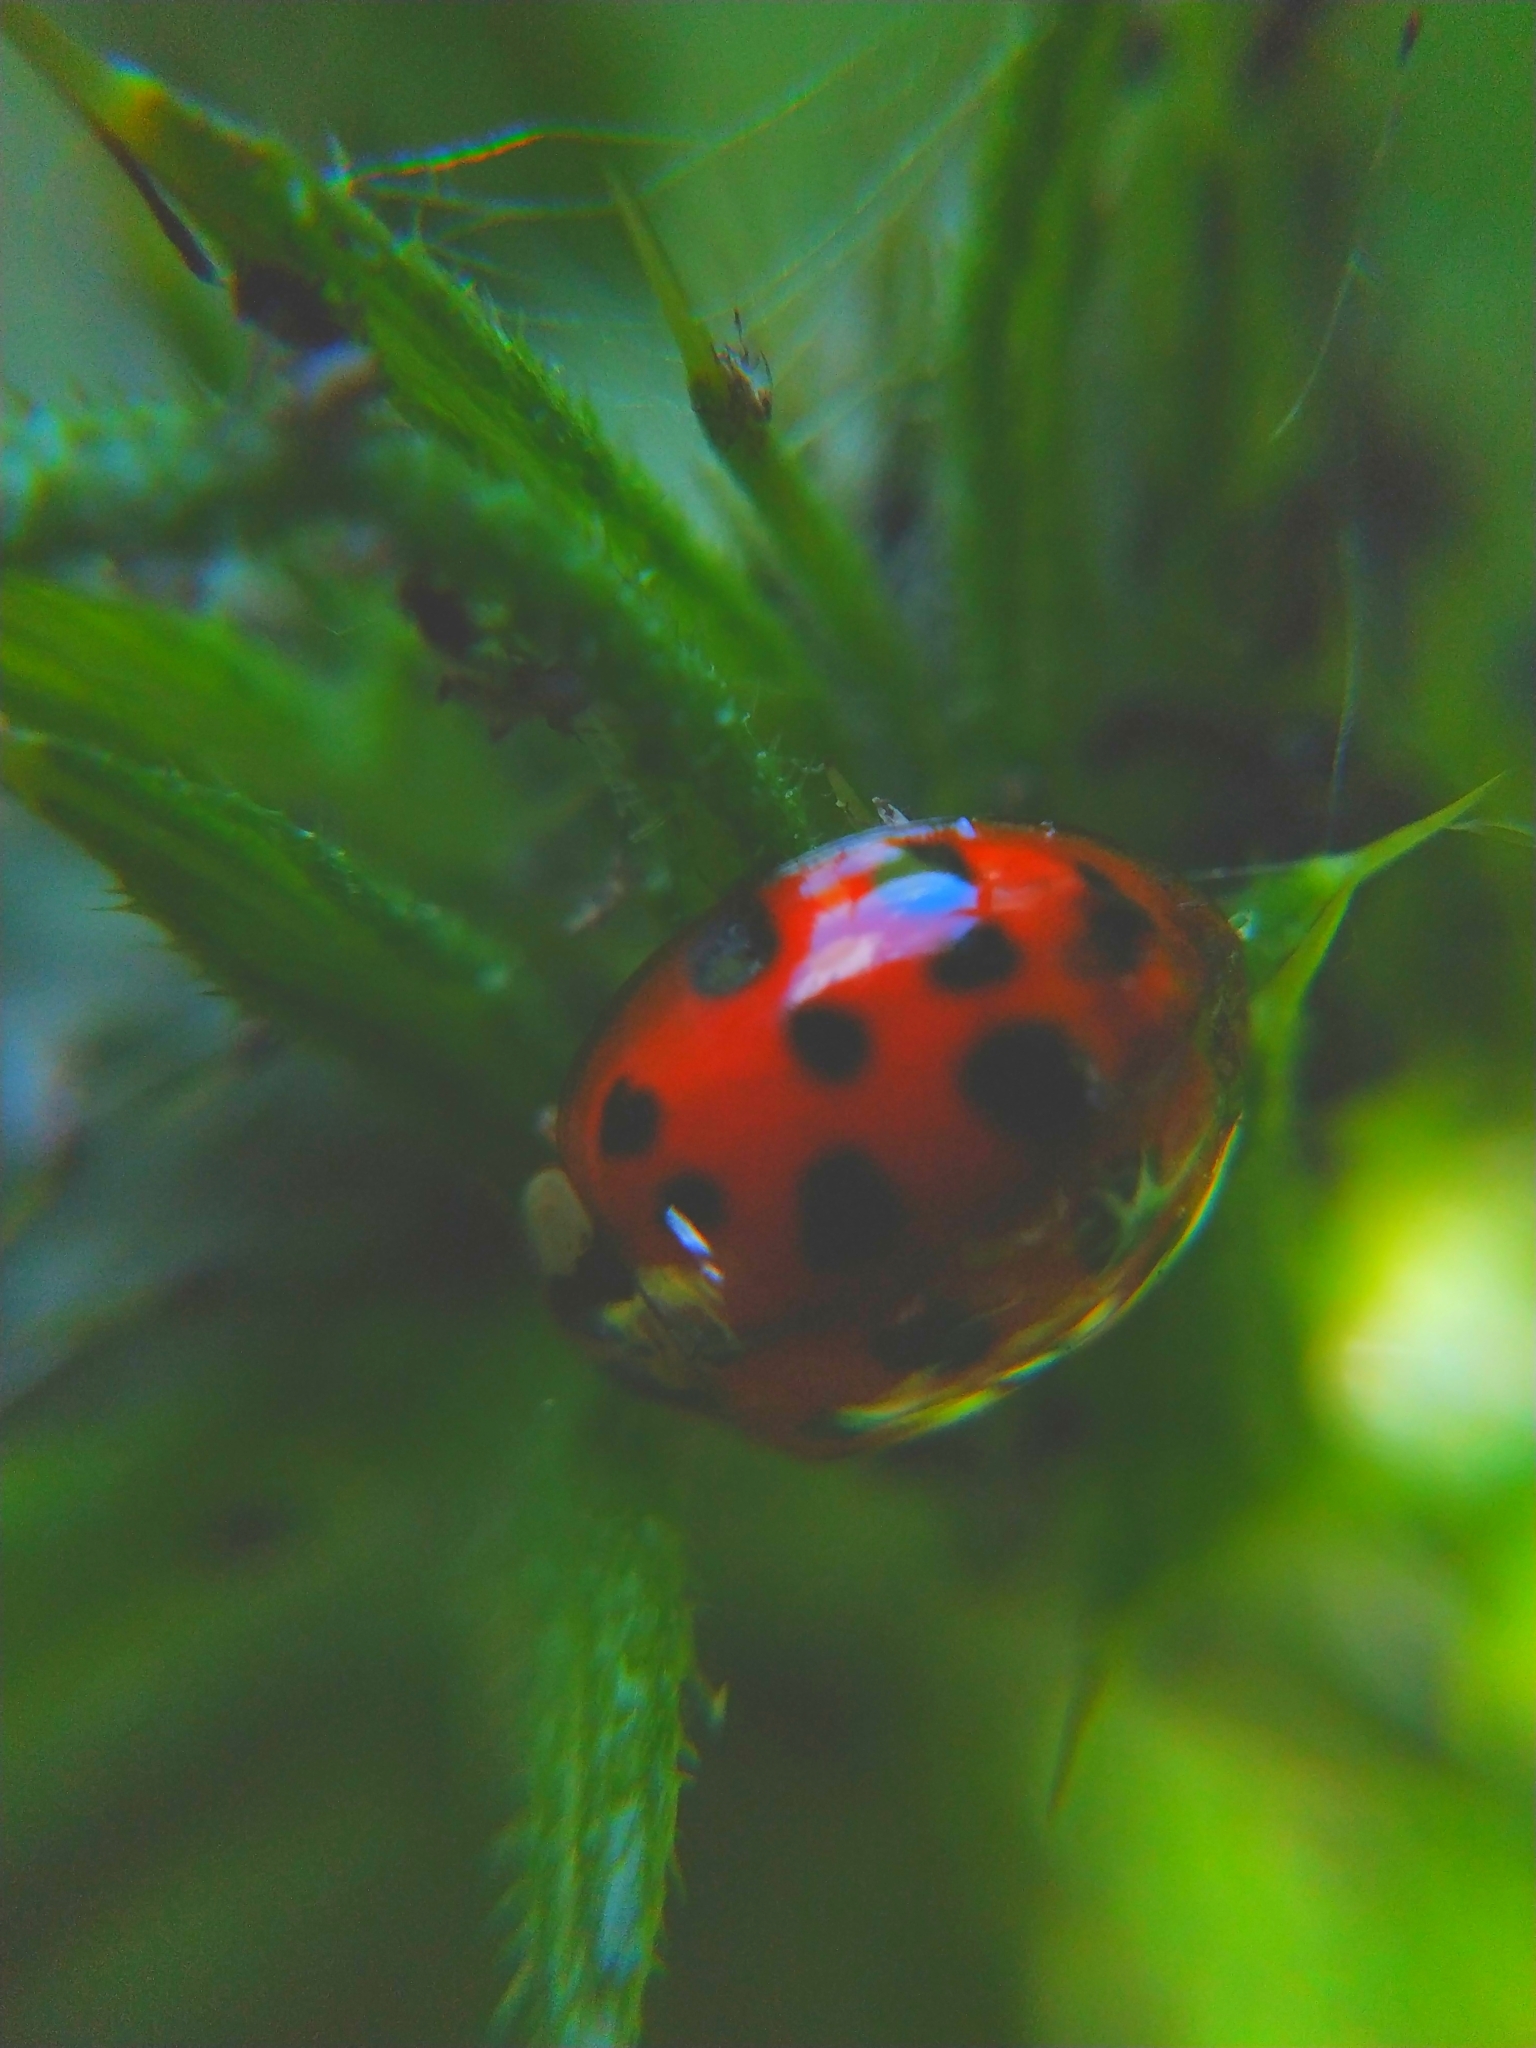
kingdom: Animalia
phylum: Arthropoda
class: Insecta
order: Coleoptera
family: Coccinellidae
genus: Harmonia
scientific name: Harmonia axyridis
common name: Harlequin ladybird
